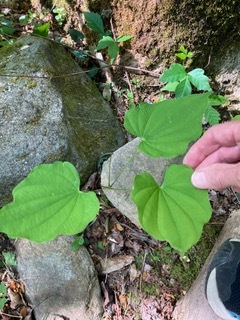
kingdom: Plantae
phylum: Tracheophyta
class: Liliopsida
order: Dioscoreales
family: Dioscoreaceae
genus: Dioscorea
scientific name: Dioscorea villosa
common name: Wild yam
